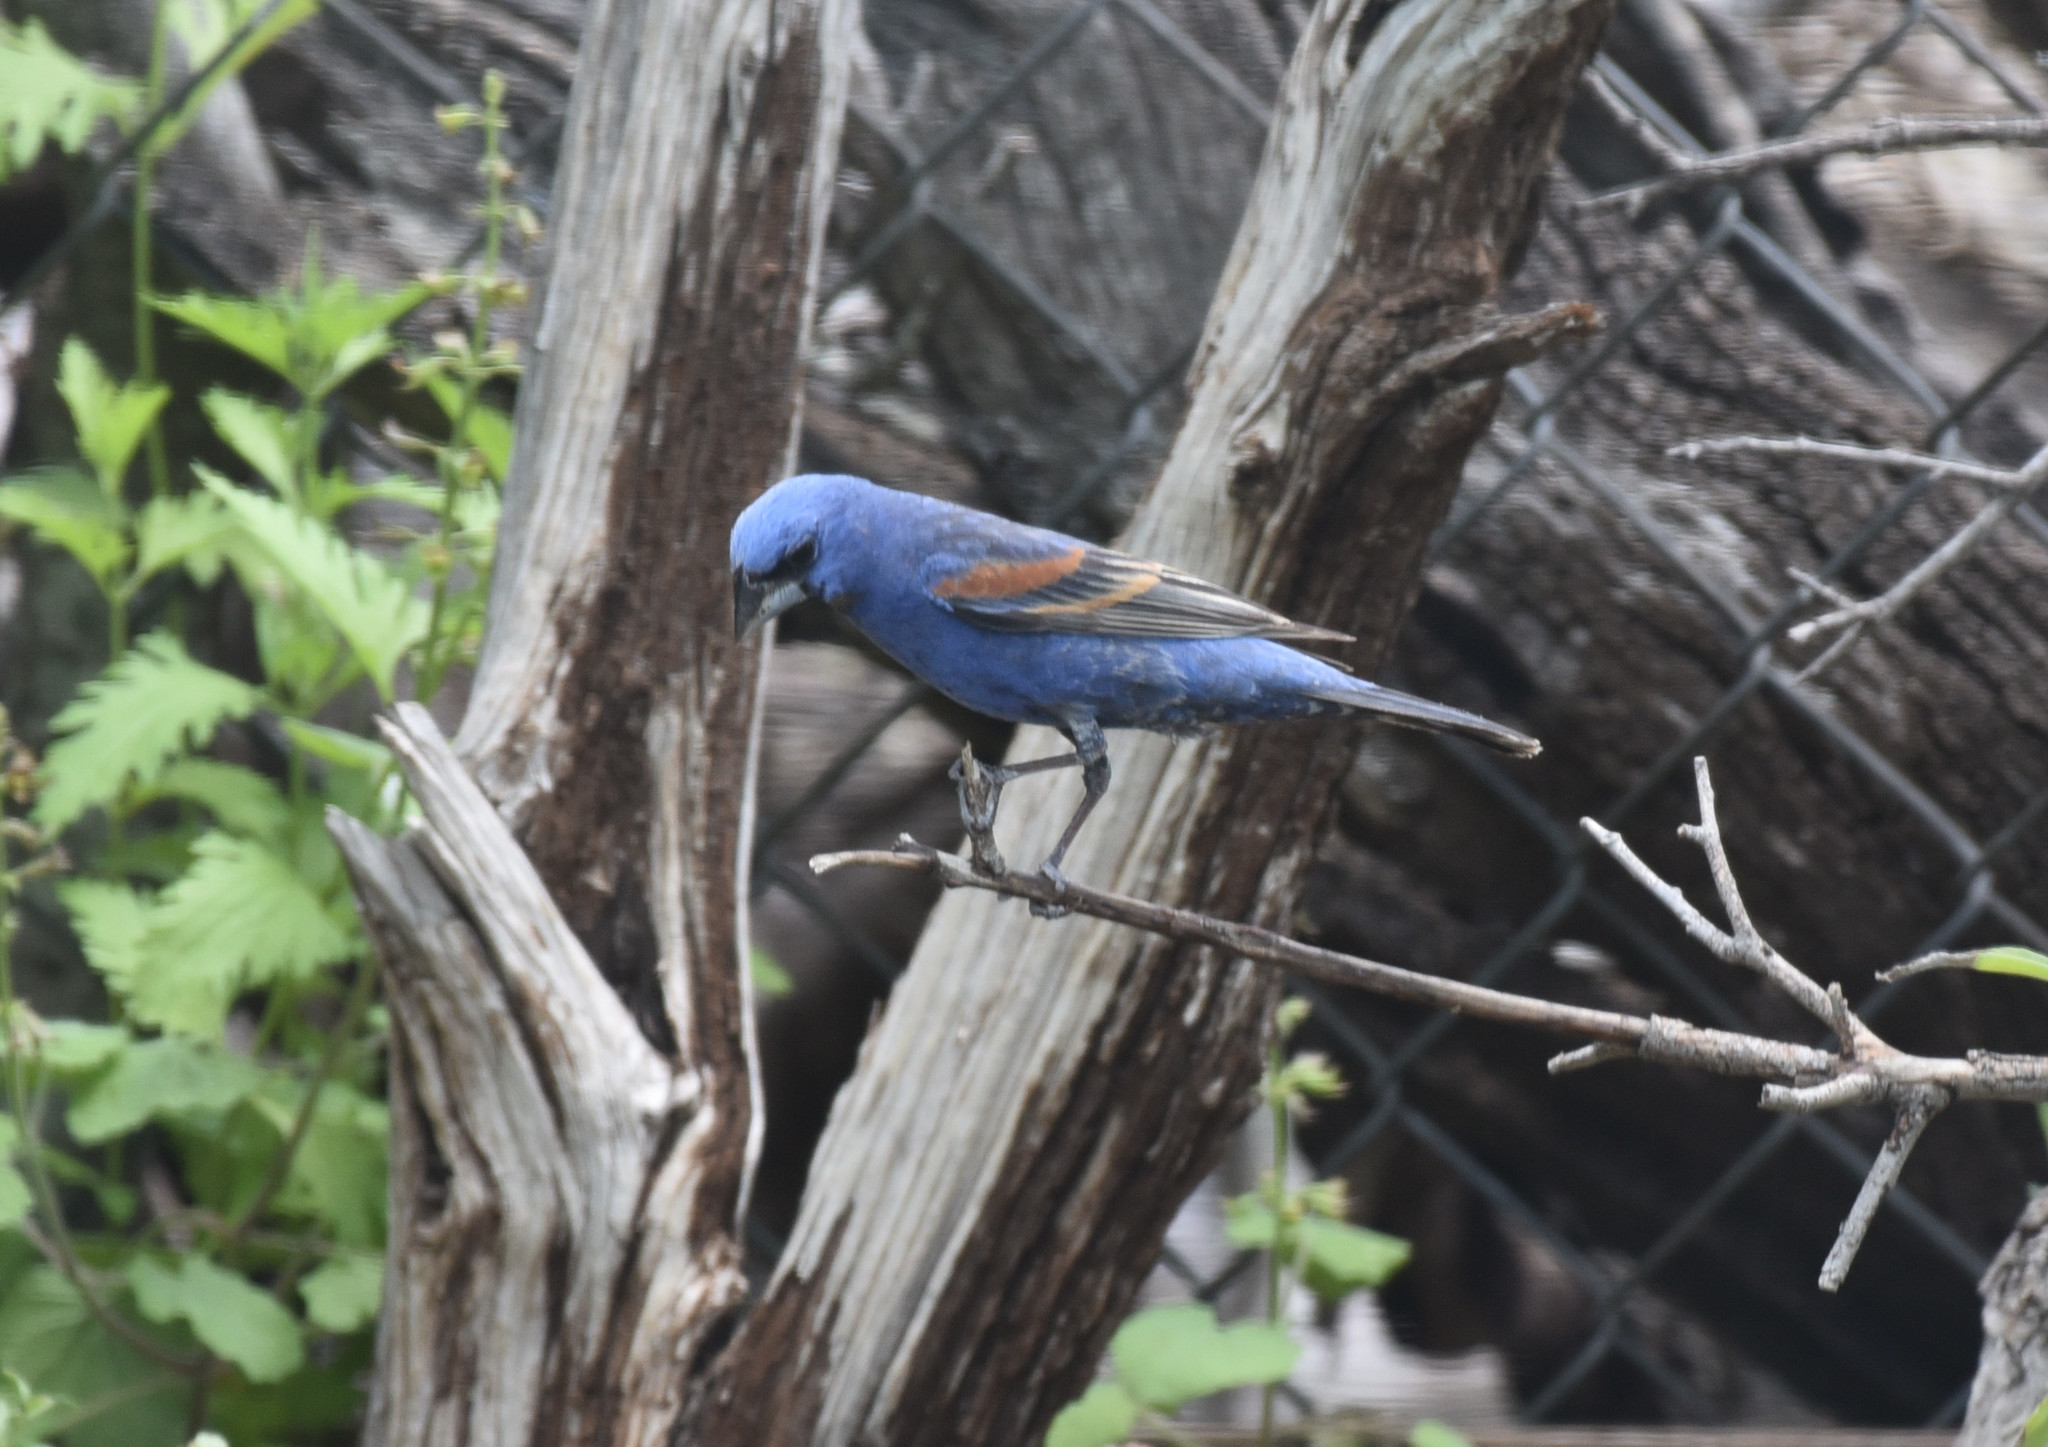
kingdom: Animalia
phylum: Chordata
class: Aves
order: Passeriformes
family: Cardinalidae
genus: Passerina
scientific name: Passerina caerulea
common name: Blue grosbeak
